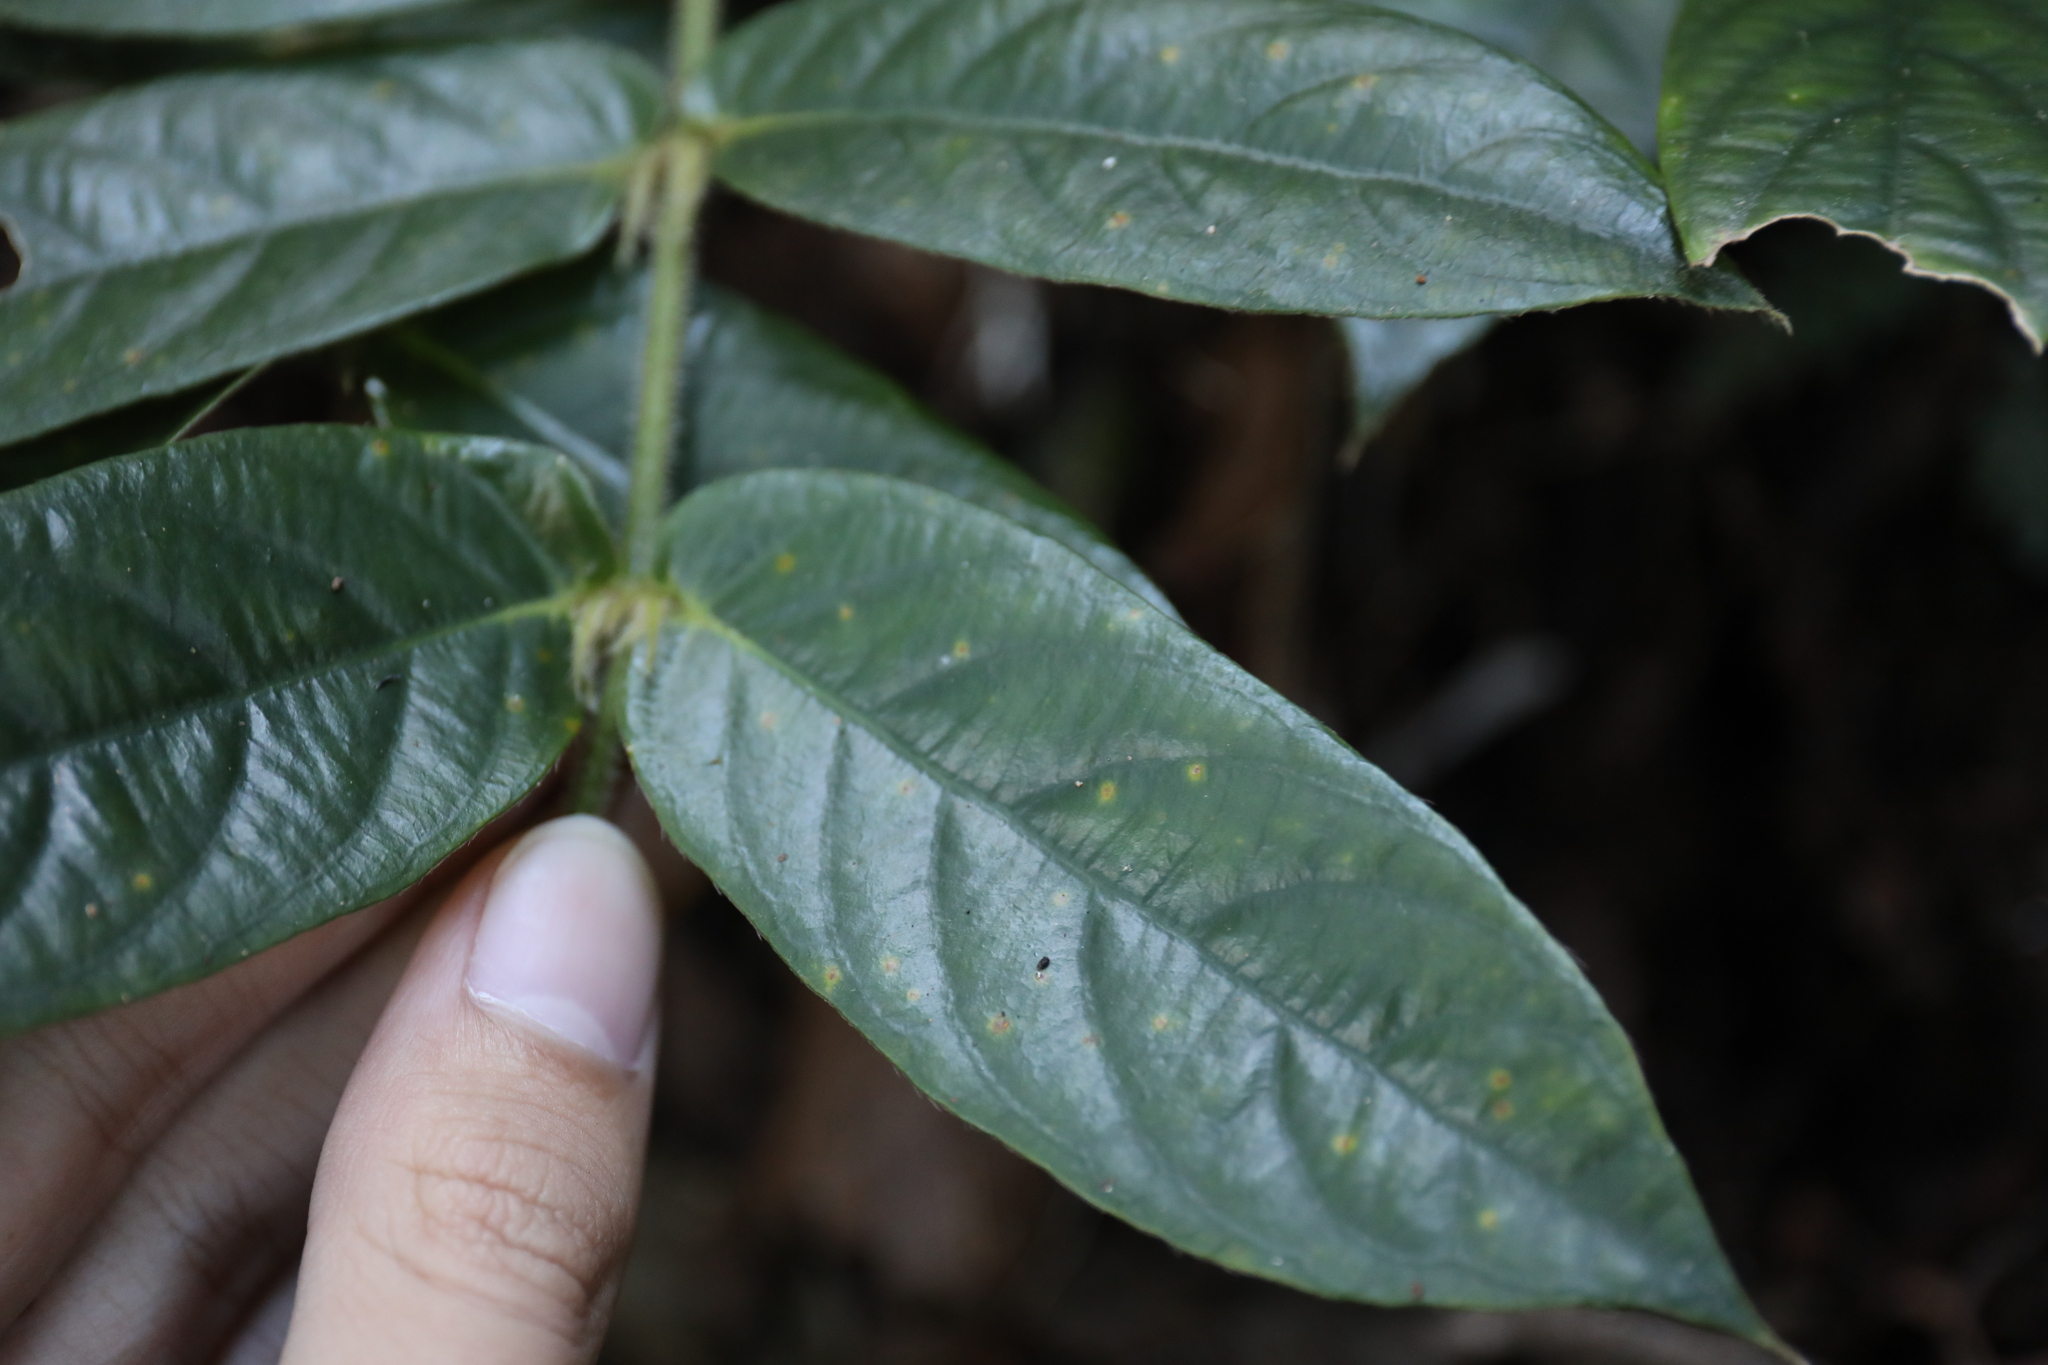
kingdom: Plantae
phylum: Tracheophyta
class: Magnoliopsida
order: Gentianales
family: Rubiaceae
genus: Lasianthus
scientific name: Lasianthus attenuatus
